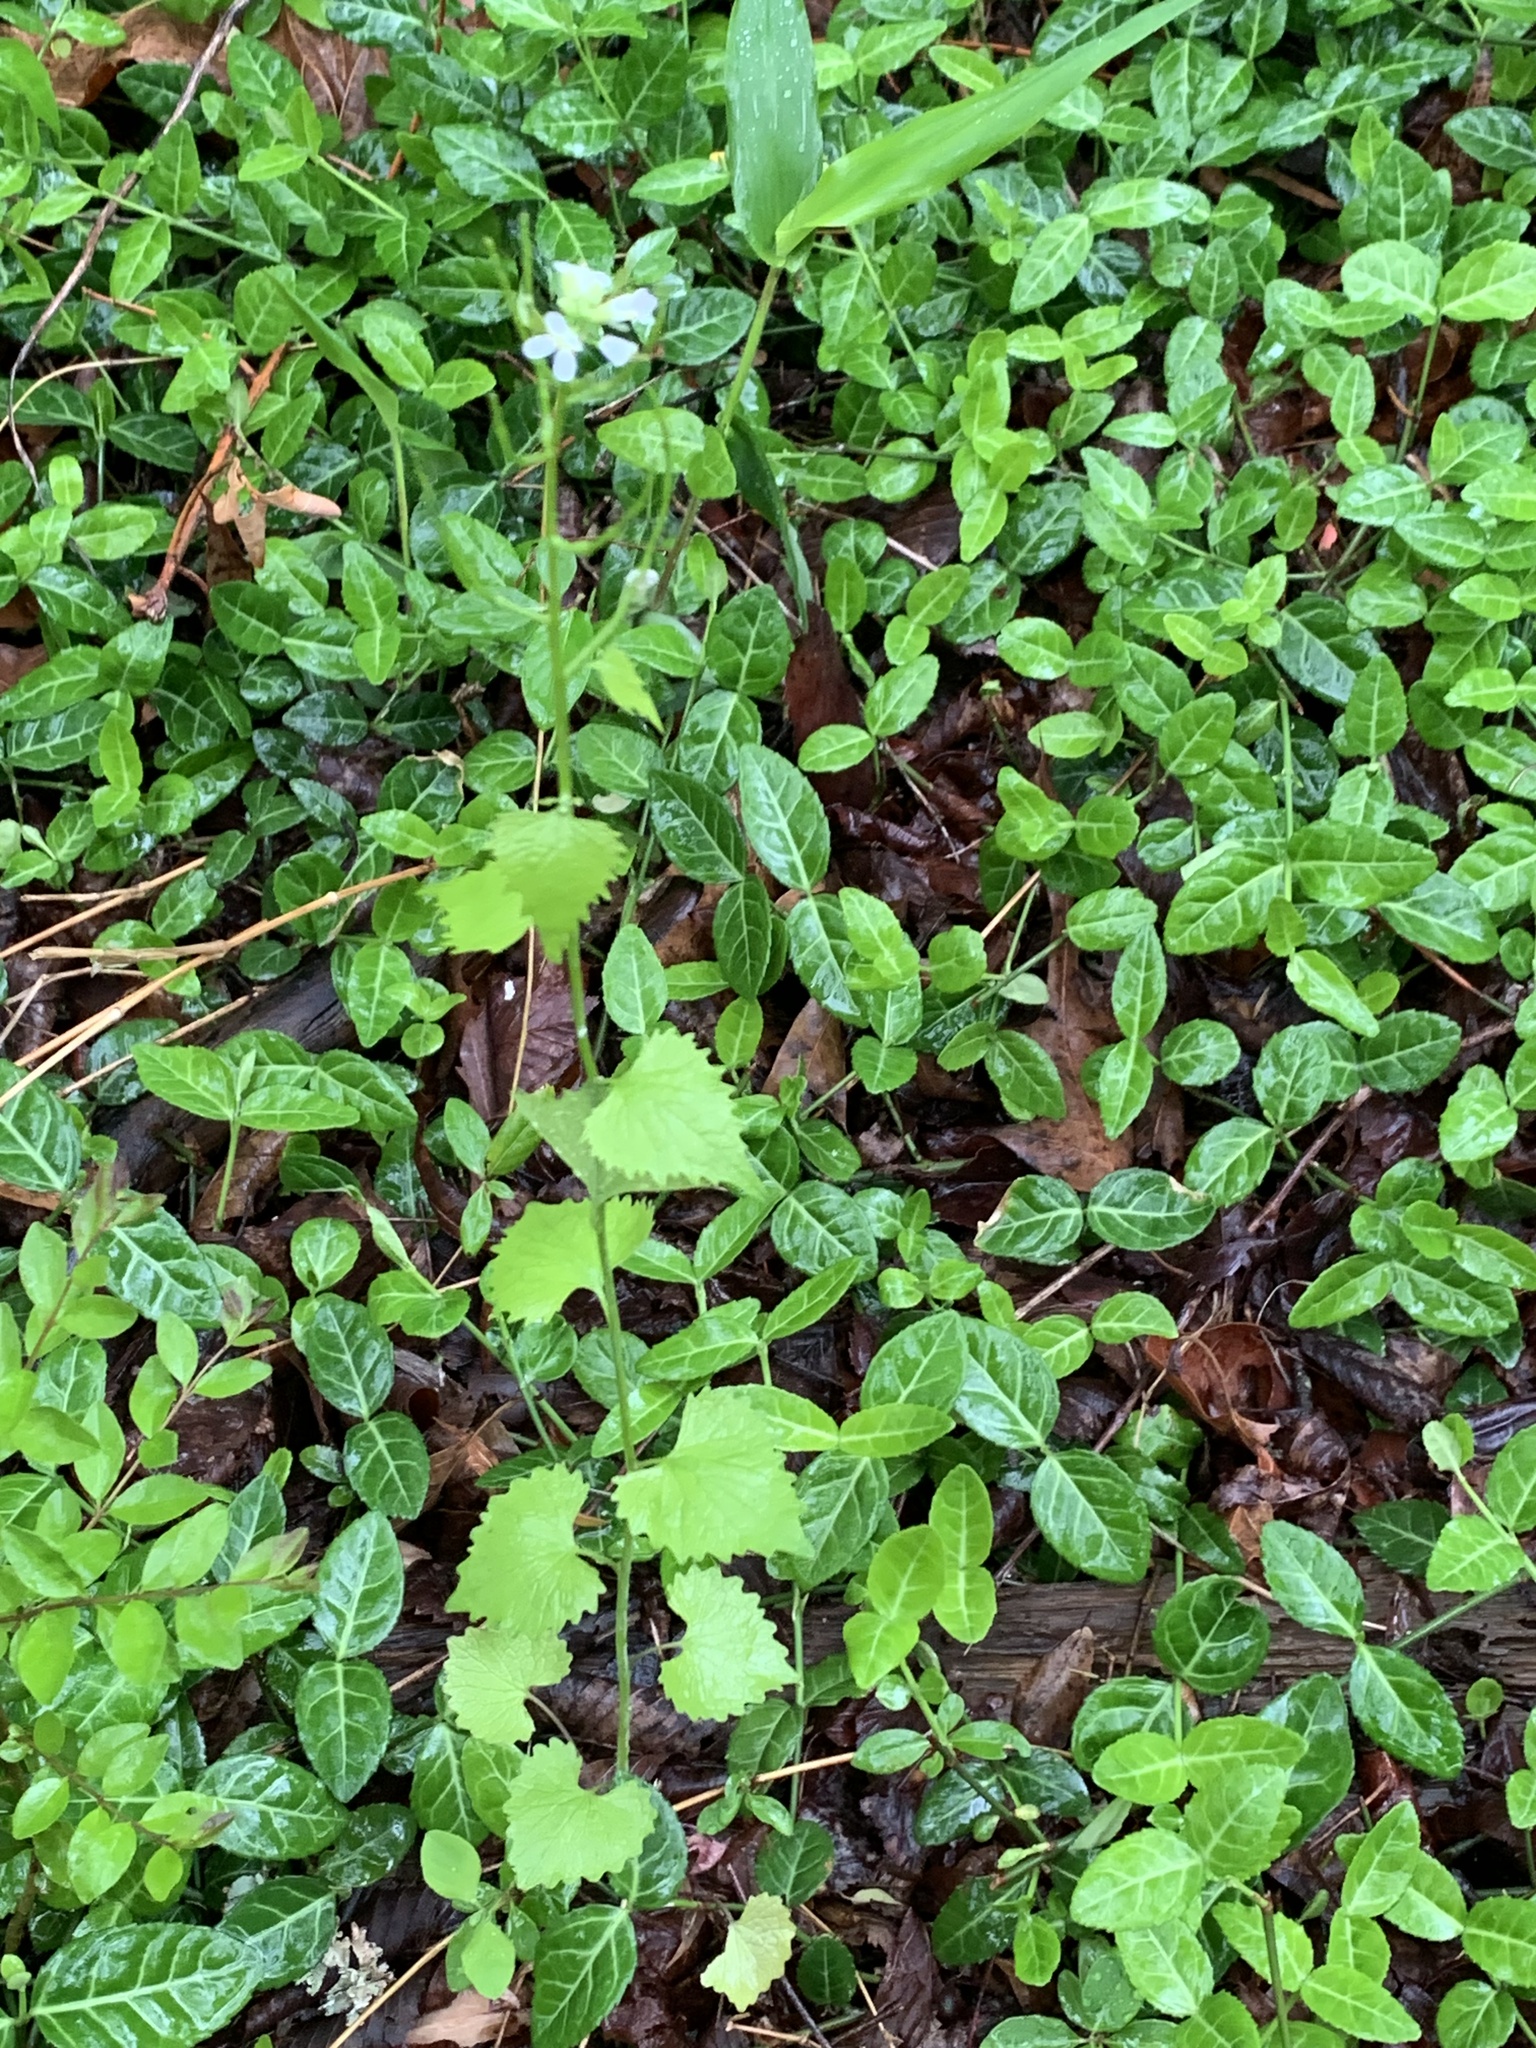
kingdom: Plantae
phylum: Tracheophyta
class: Magnoliopsida
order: Brassicales
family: Brassicaceae
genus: Alliaria
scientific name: Alliaria petiolata
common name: Garlic mustard
